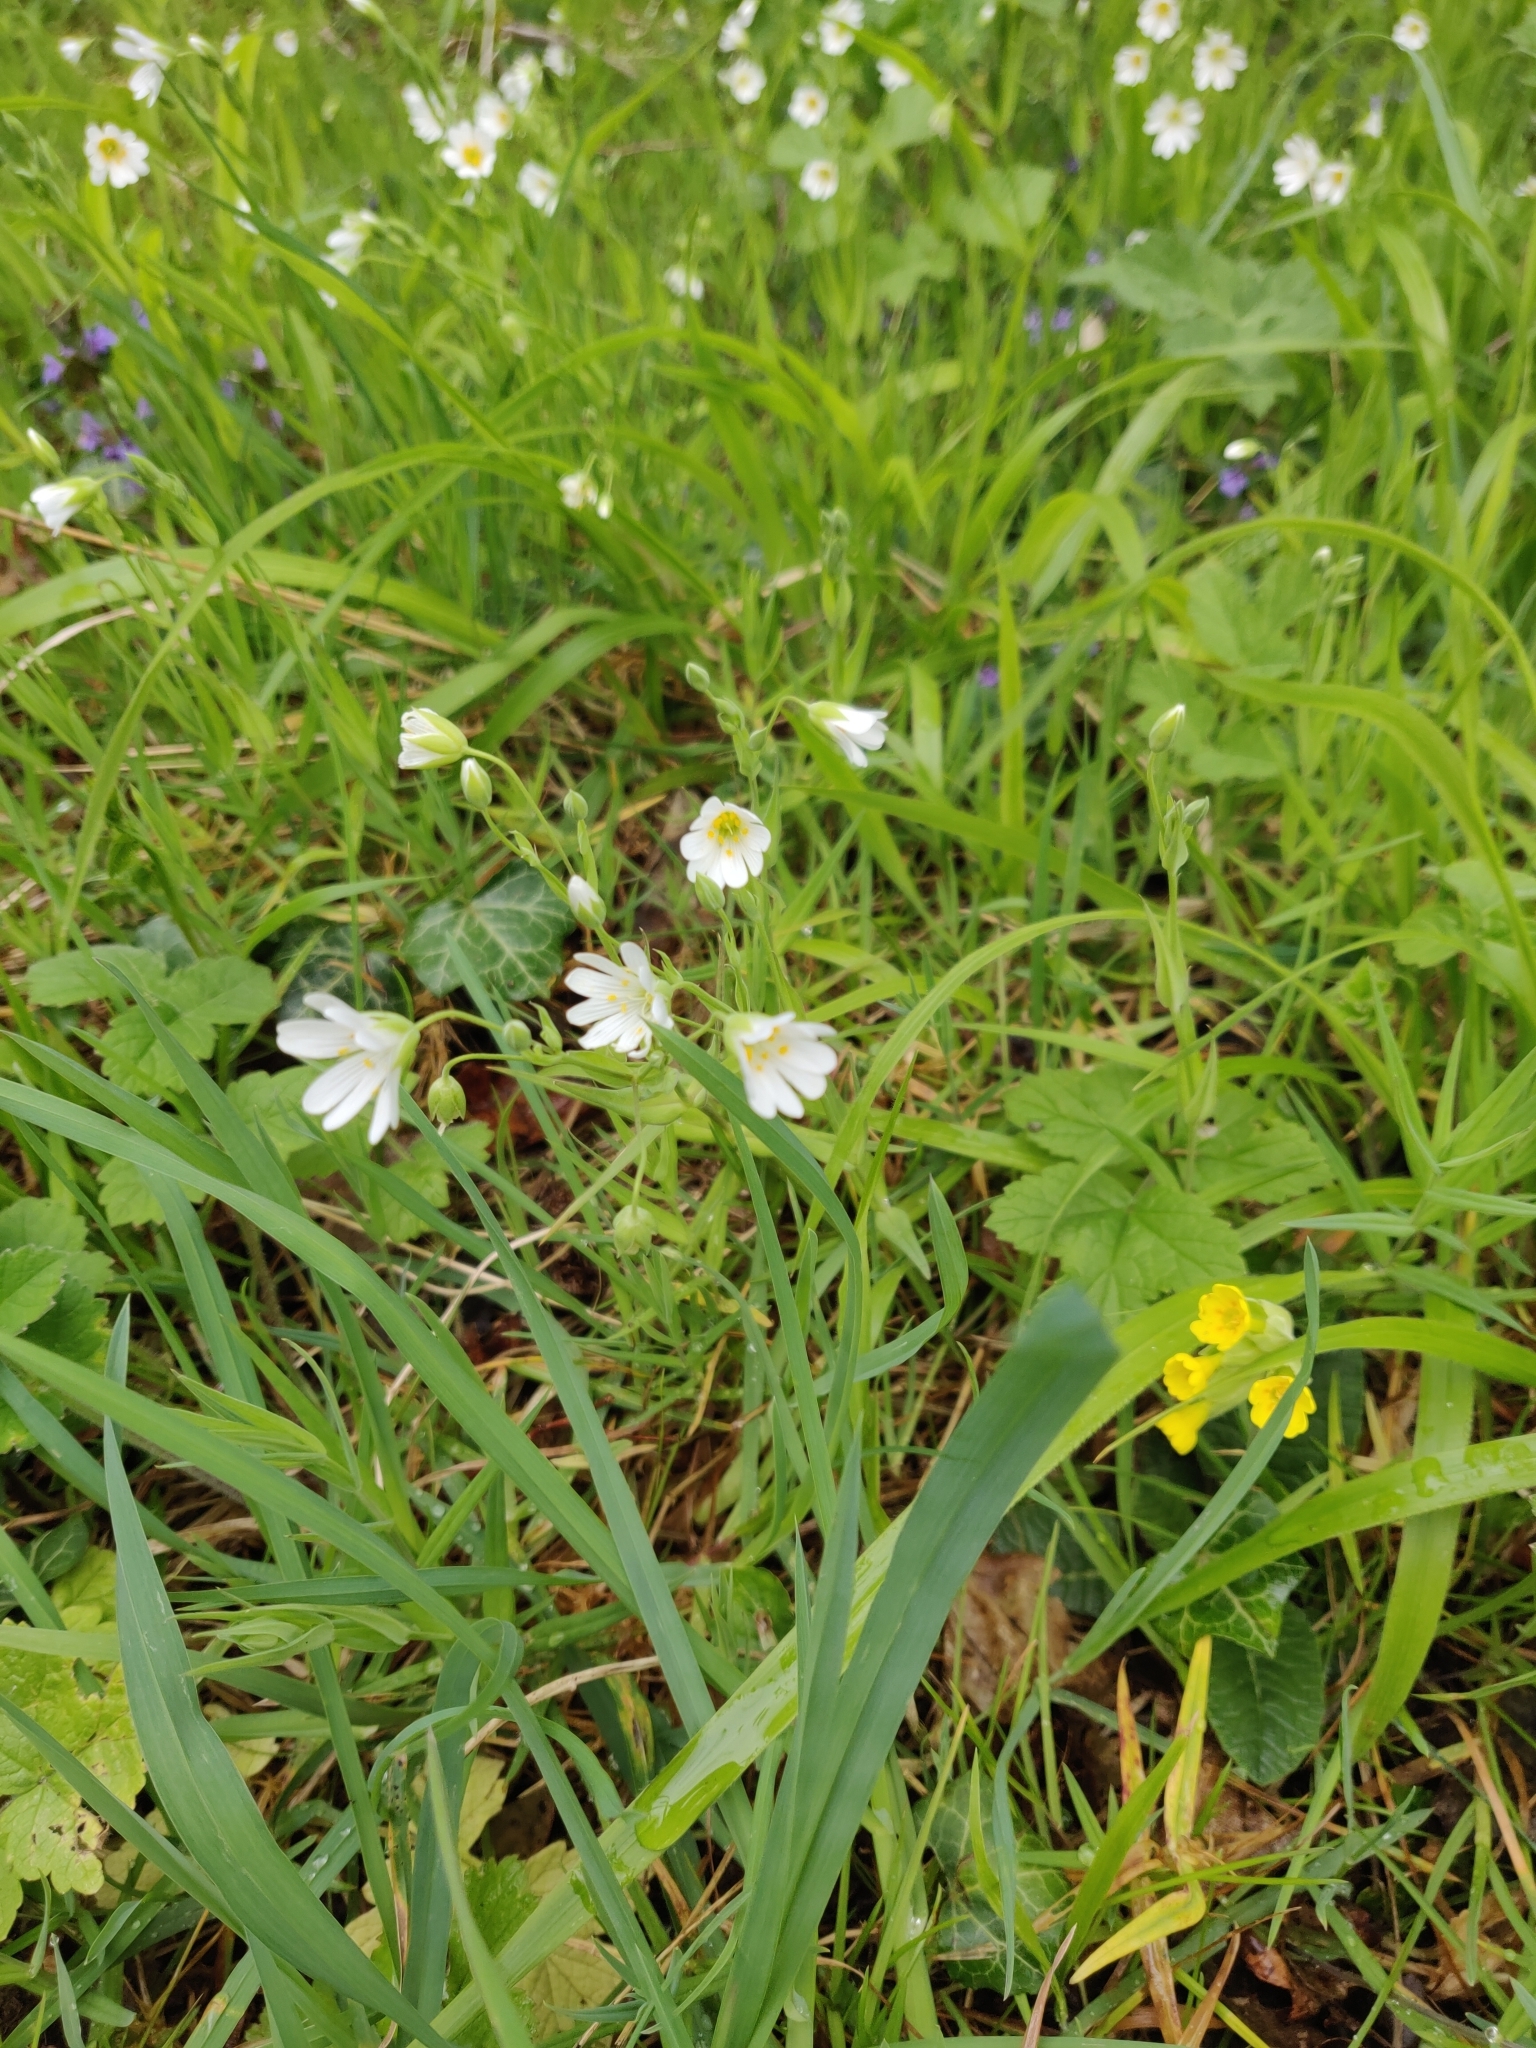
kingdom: Plantae
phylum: Tracheophyta
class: Magnoliopsida
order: Caryophyllales
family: Caryophyllaceae
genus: Rabelera
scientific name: Rabelera holostea
